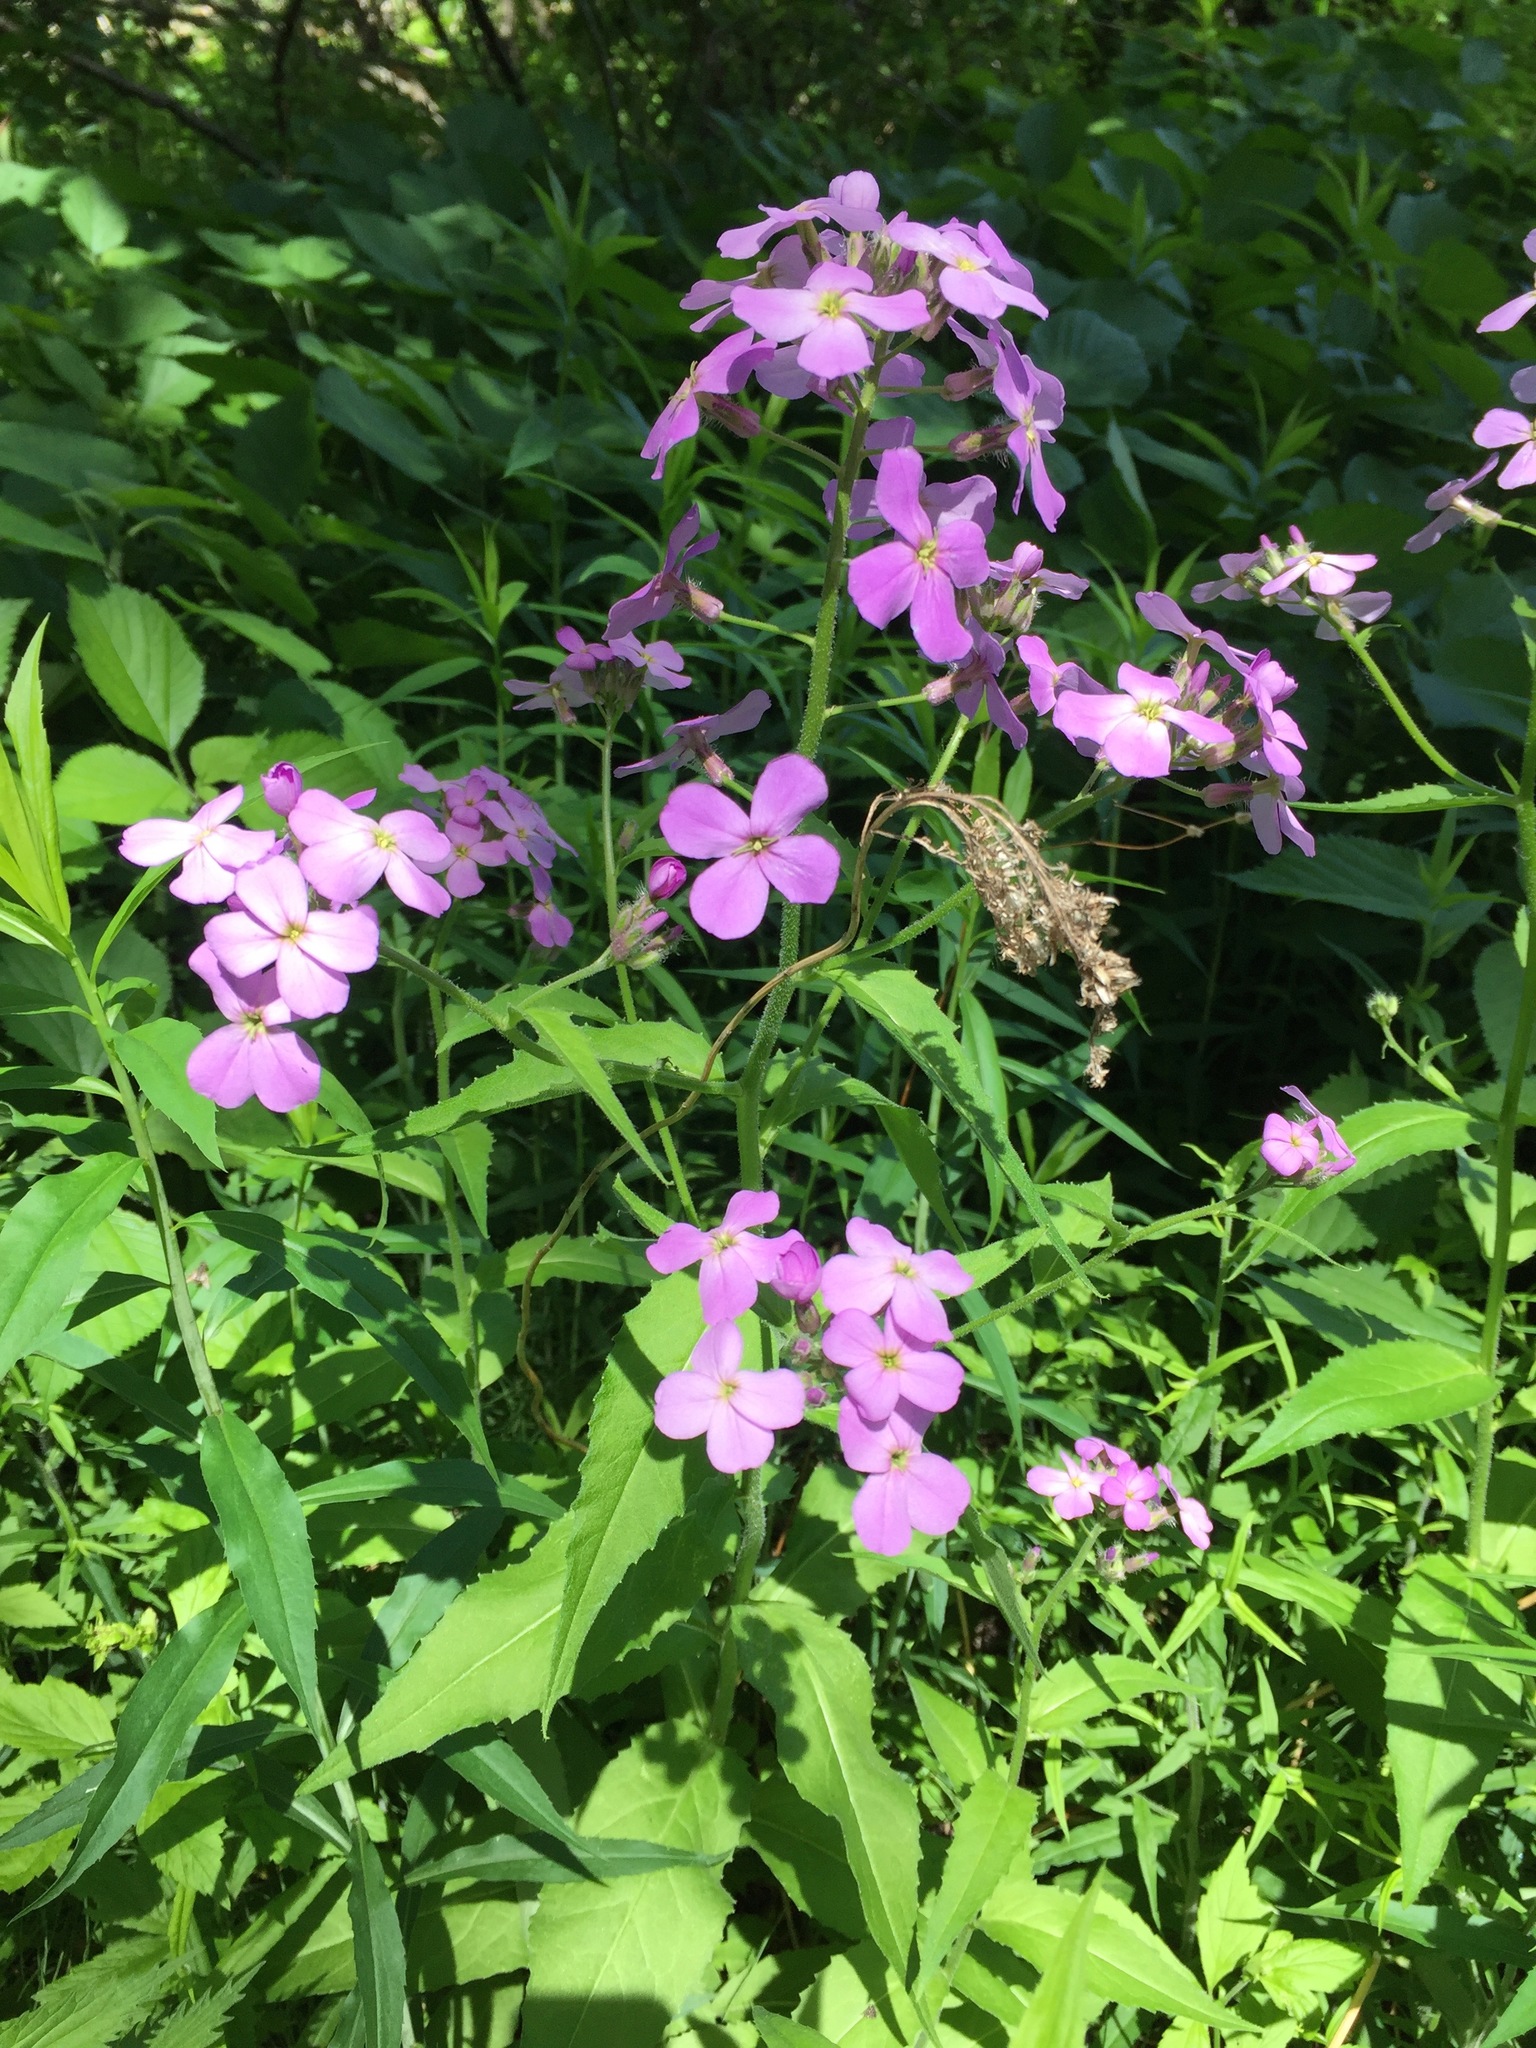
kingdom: Plantae
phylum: Tracheophyta
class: Magnoliopsida
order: Brassicales
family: Brassicaceae
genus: Hesperis
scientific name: Hesperis matronalis
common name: Dame's-violet
